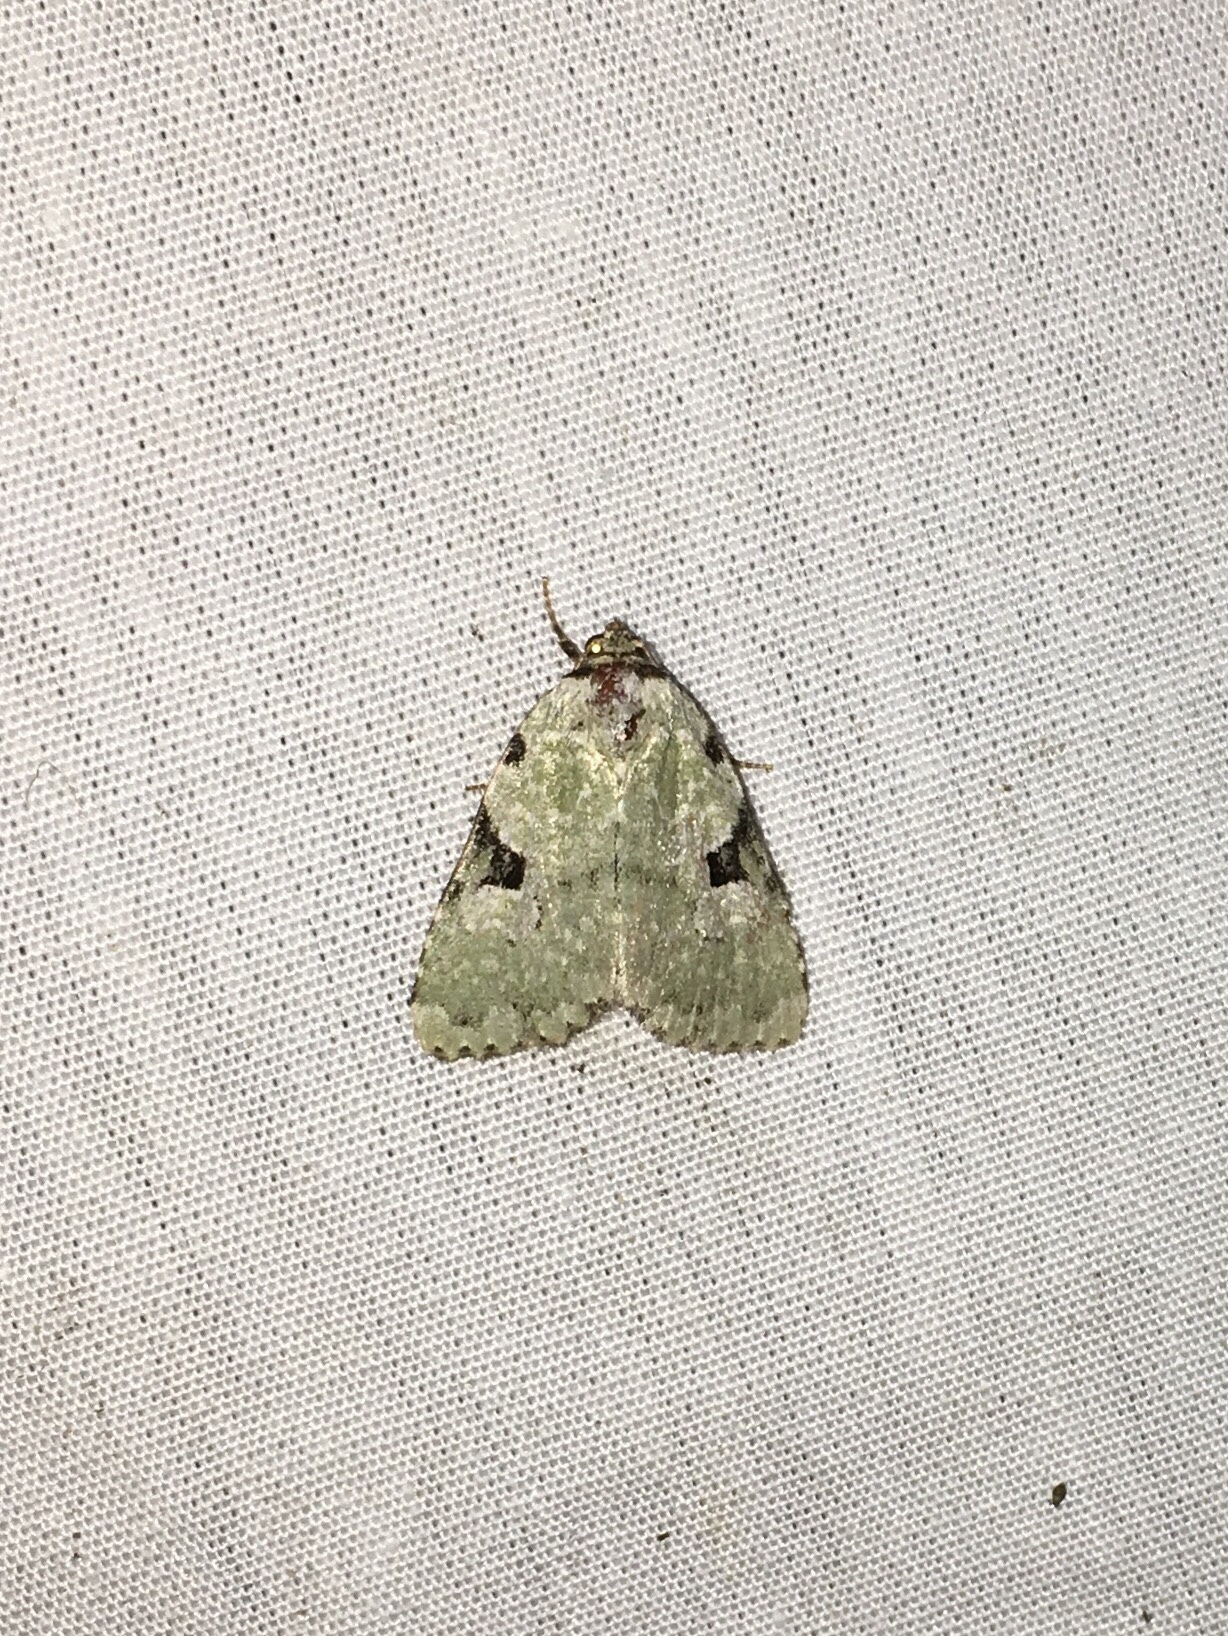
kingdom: Animalia
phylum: Arthropoda
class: Insecta
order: Lepidoptera
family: Noctuidae
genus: Leuconycta
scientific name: Leuconycta diphteroides
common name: Green leuconycta moth
